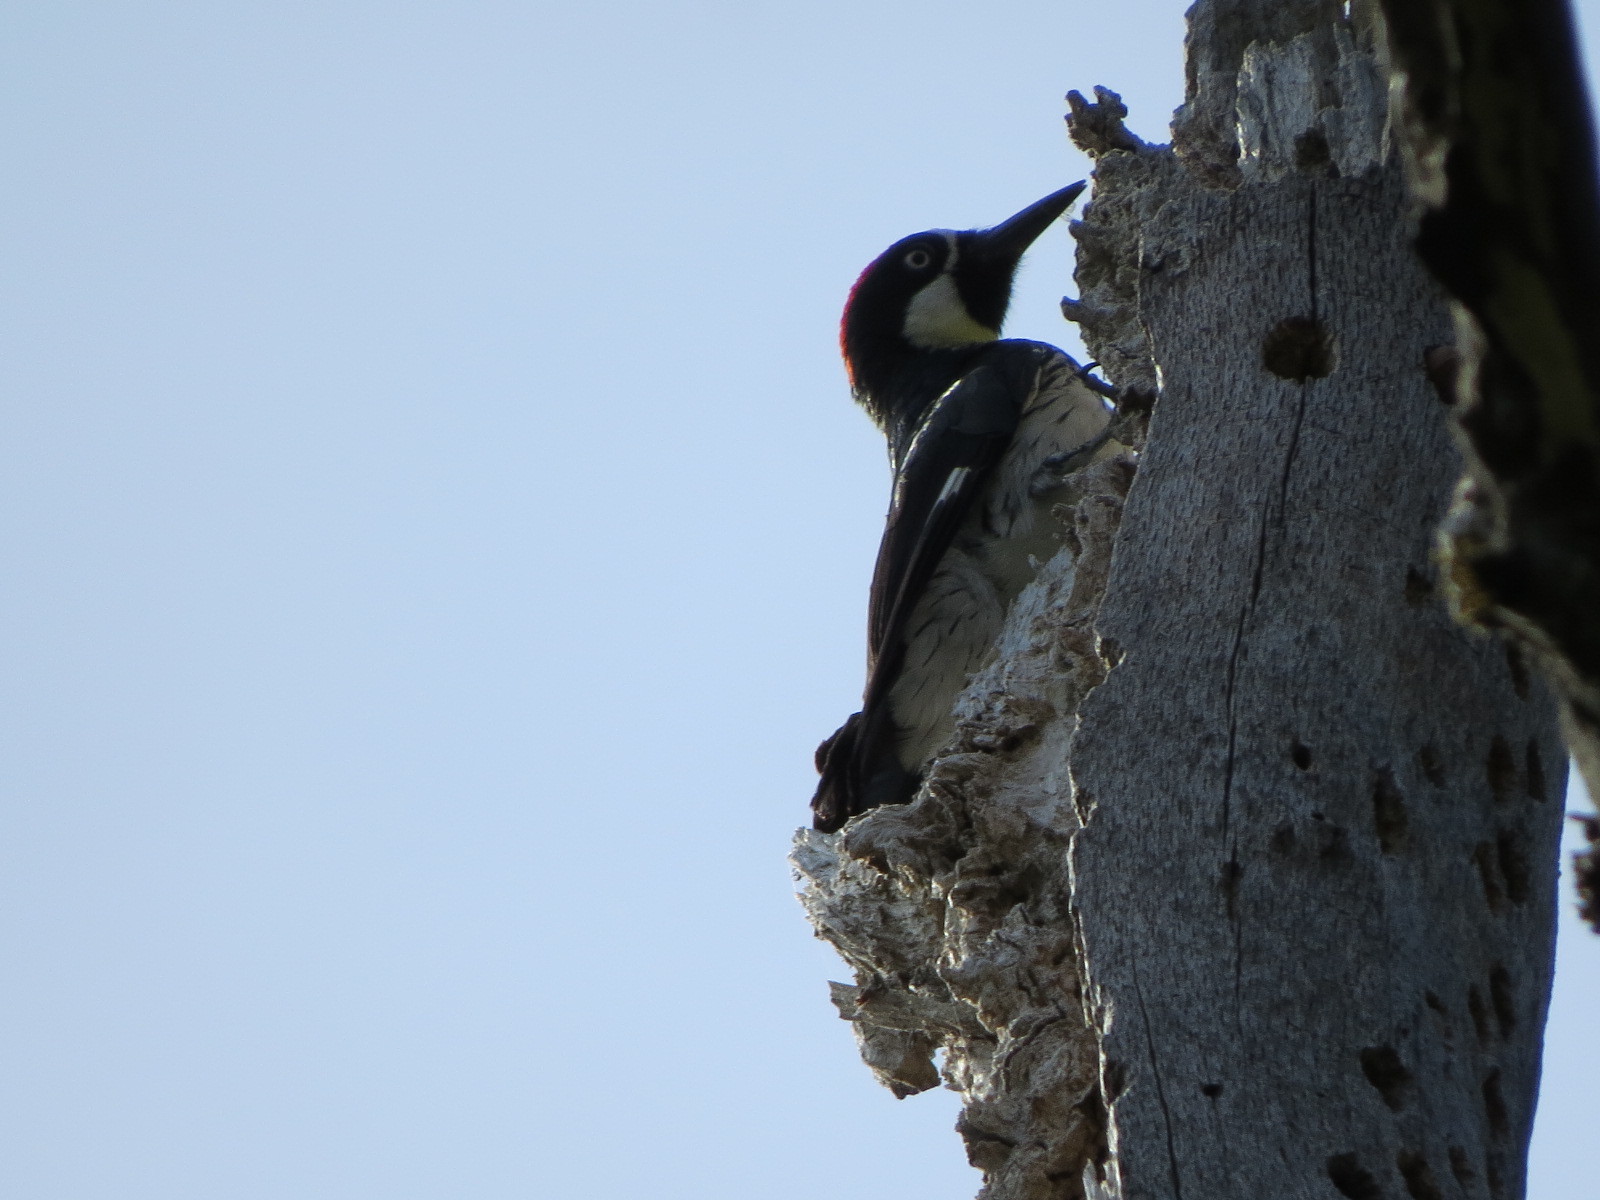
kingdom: Animalia
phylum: Chordata
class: Aves
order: Piciformes
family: Picidae
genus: Melanerpes
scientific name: Melanerpes formicivorus
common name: Acorn woodpecker
